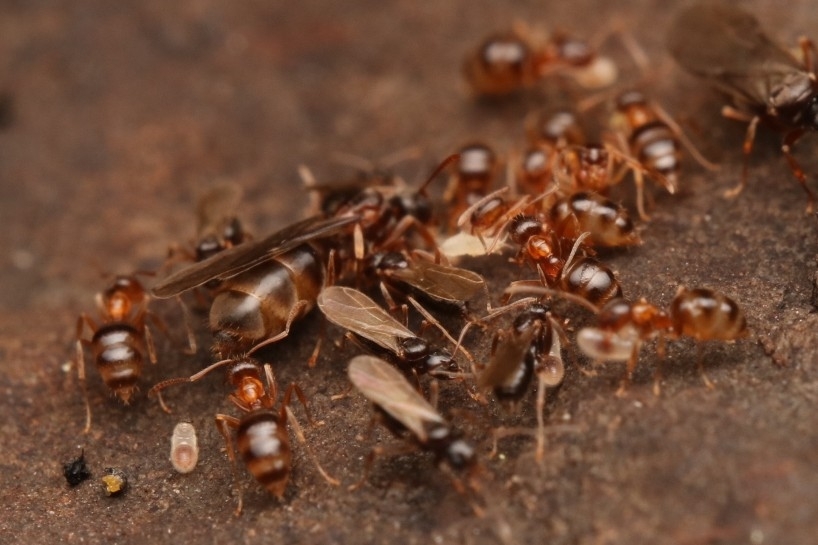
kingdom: Animalia
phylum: Arthropoda
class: Insecta
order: Hymenoptera
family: Formicidae
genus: Paratrechina
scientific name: Paratrechina flavipes
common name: Eastern asian formicine ant
